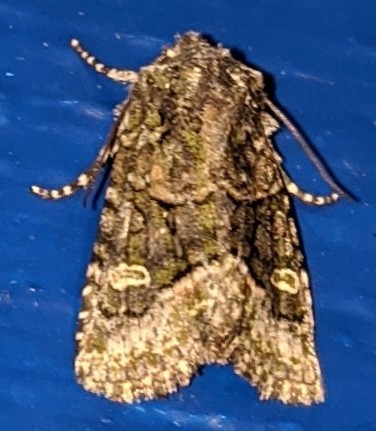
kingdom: Animalia
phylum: Arthropoda
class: Insecta
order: Lepidoptera
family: Noctuidae
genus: Lacinipolia
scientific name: Lacinipolia olivacea
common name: Olive arches moth
